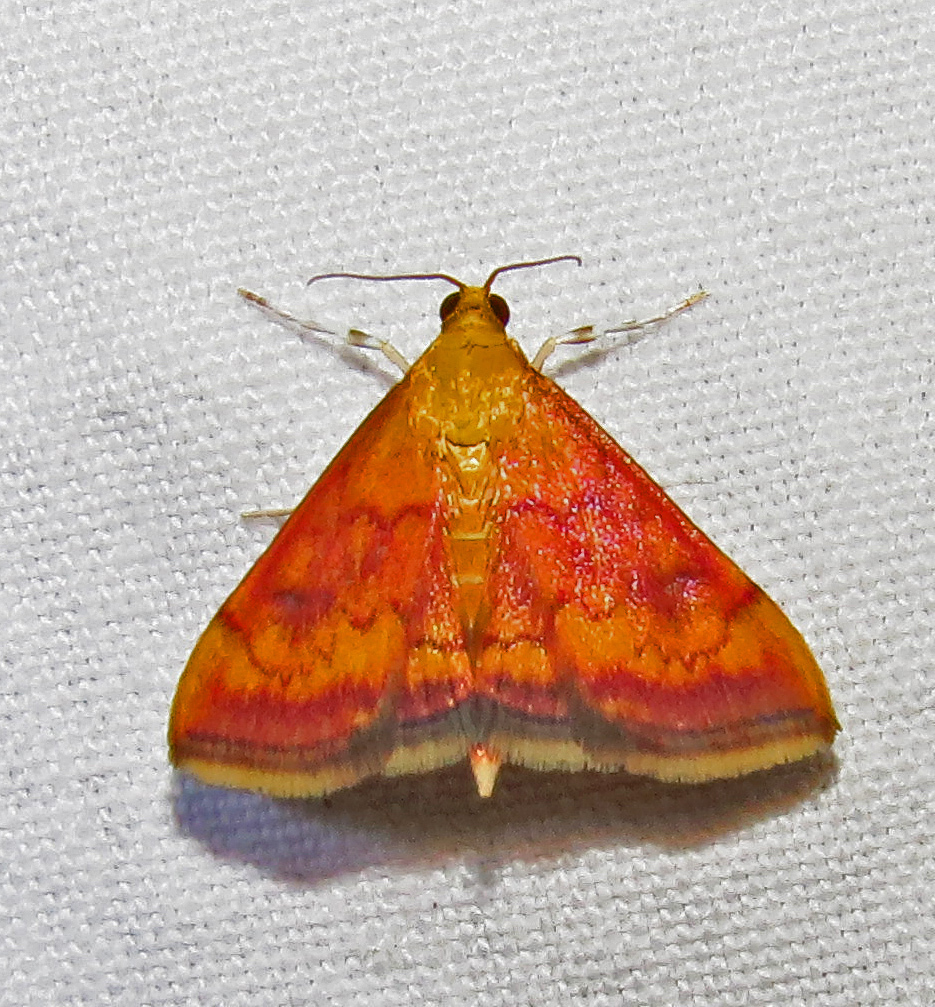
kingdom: Animalia
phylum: Arthropoda
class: Insecta
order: Lepidoptera
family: Crambidae
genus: Pyrausta
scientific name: Pyrausta rubricalis
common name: Variable reddish pyrausta
